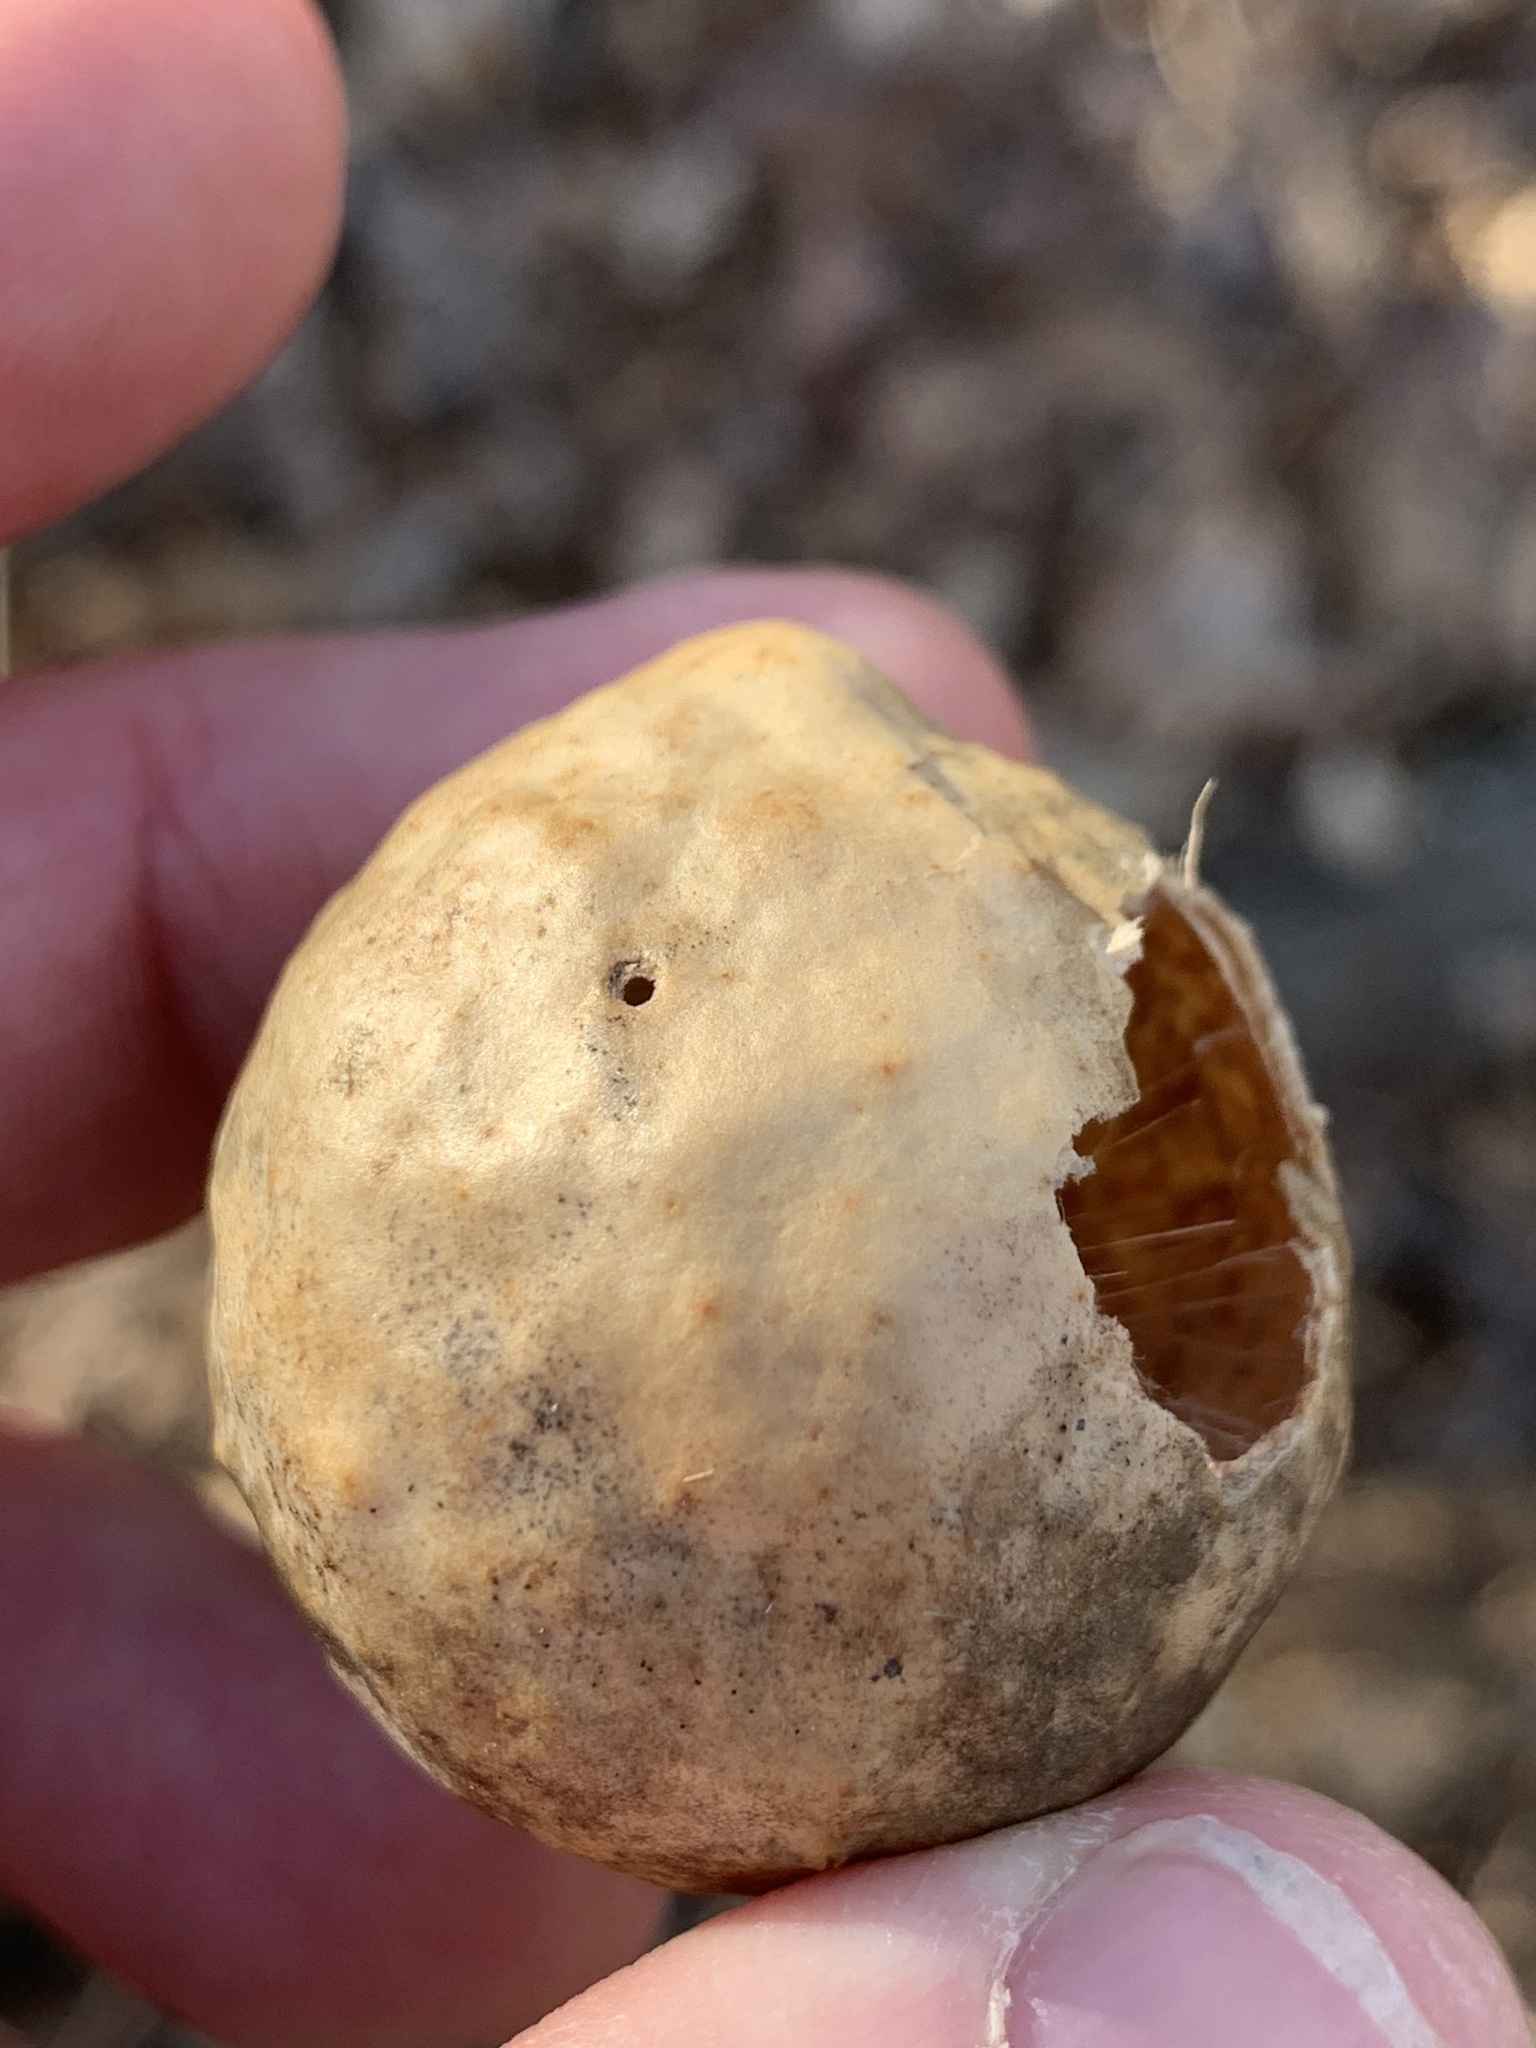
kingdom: Animalia
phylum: Arthropoda
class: Insecta
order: Hymenoptera
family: Cynipidae
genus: Amphibolips
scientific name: Amphibolips
